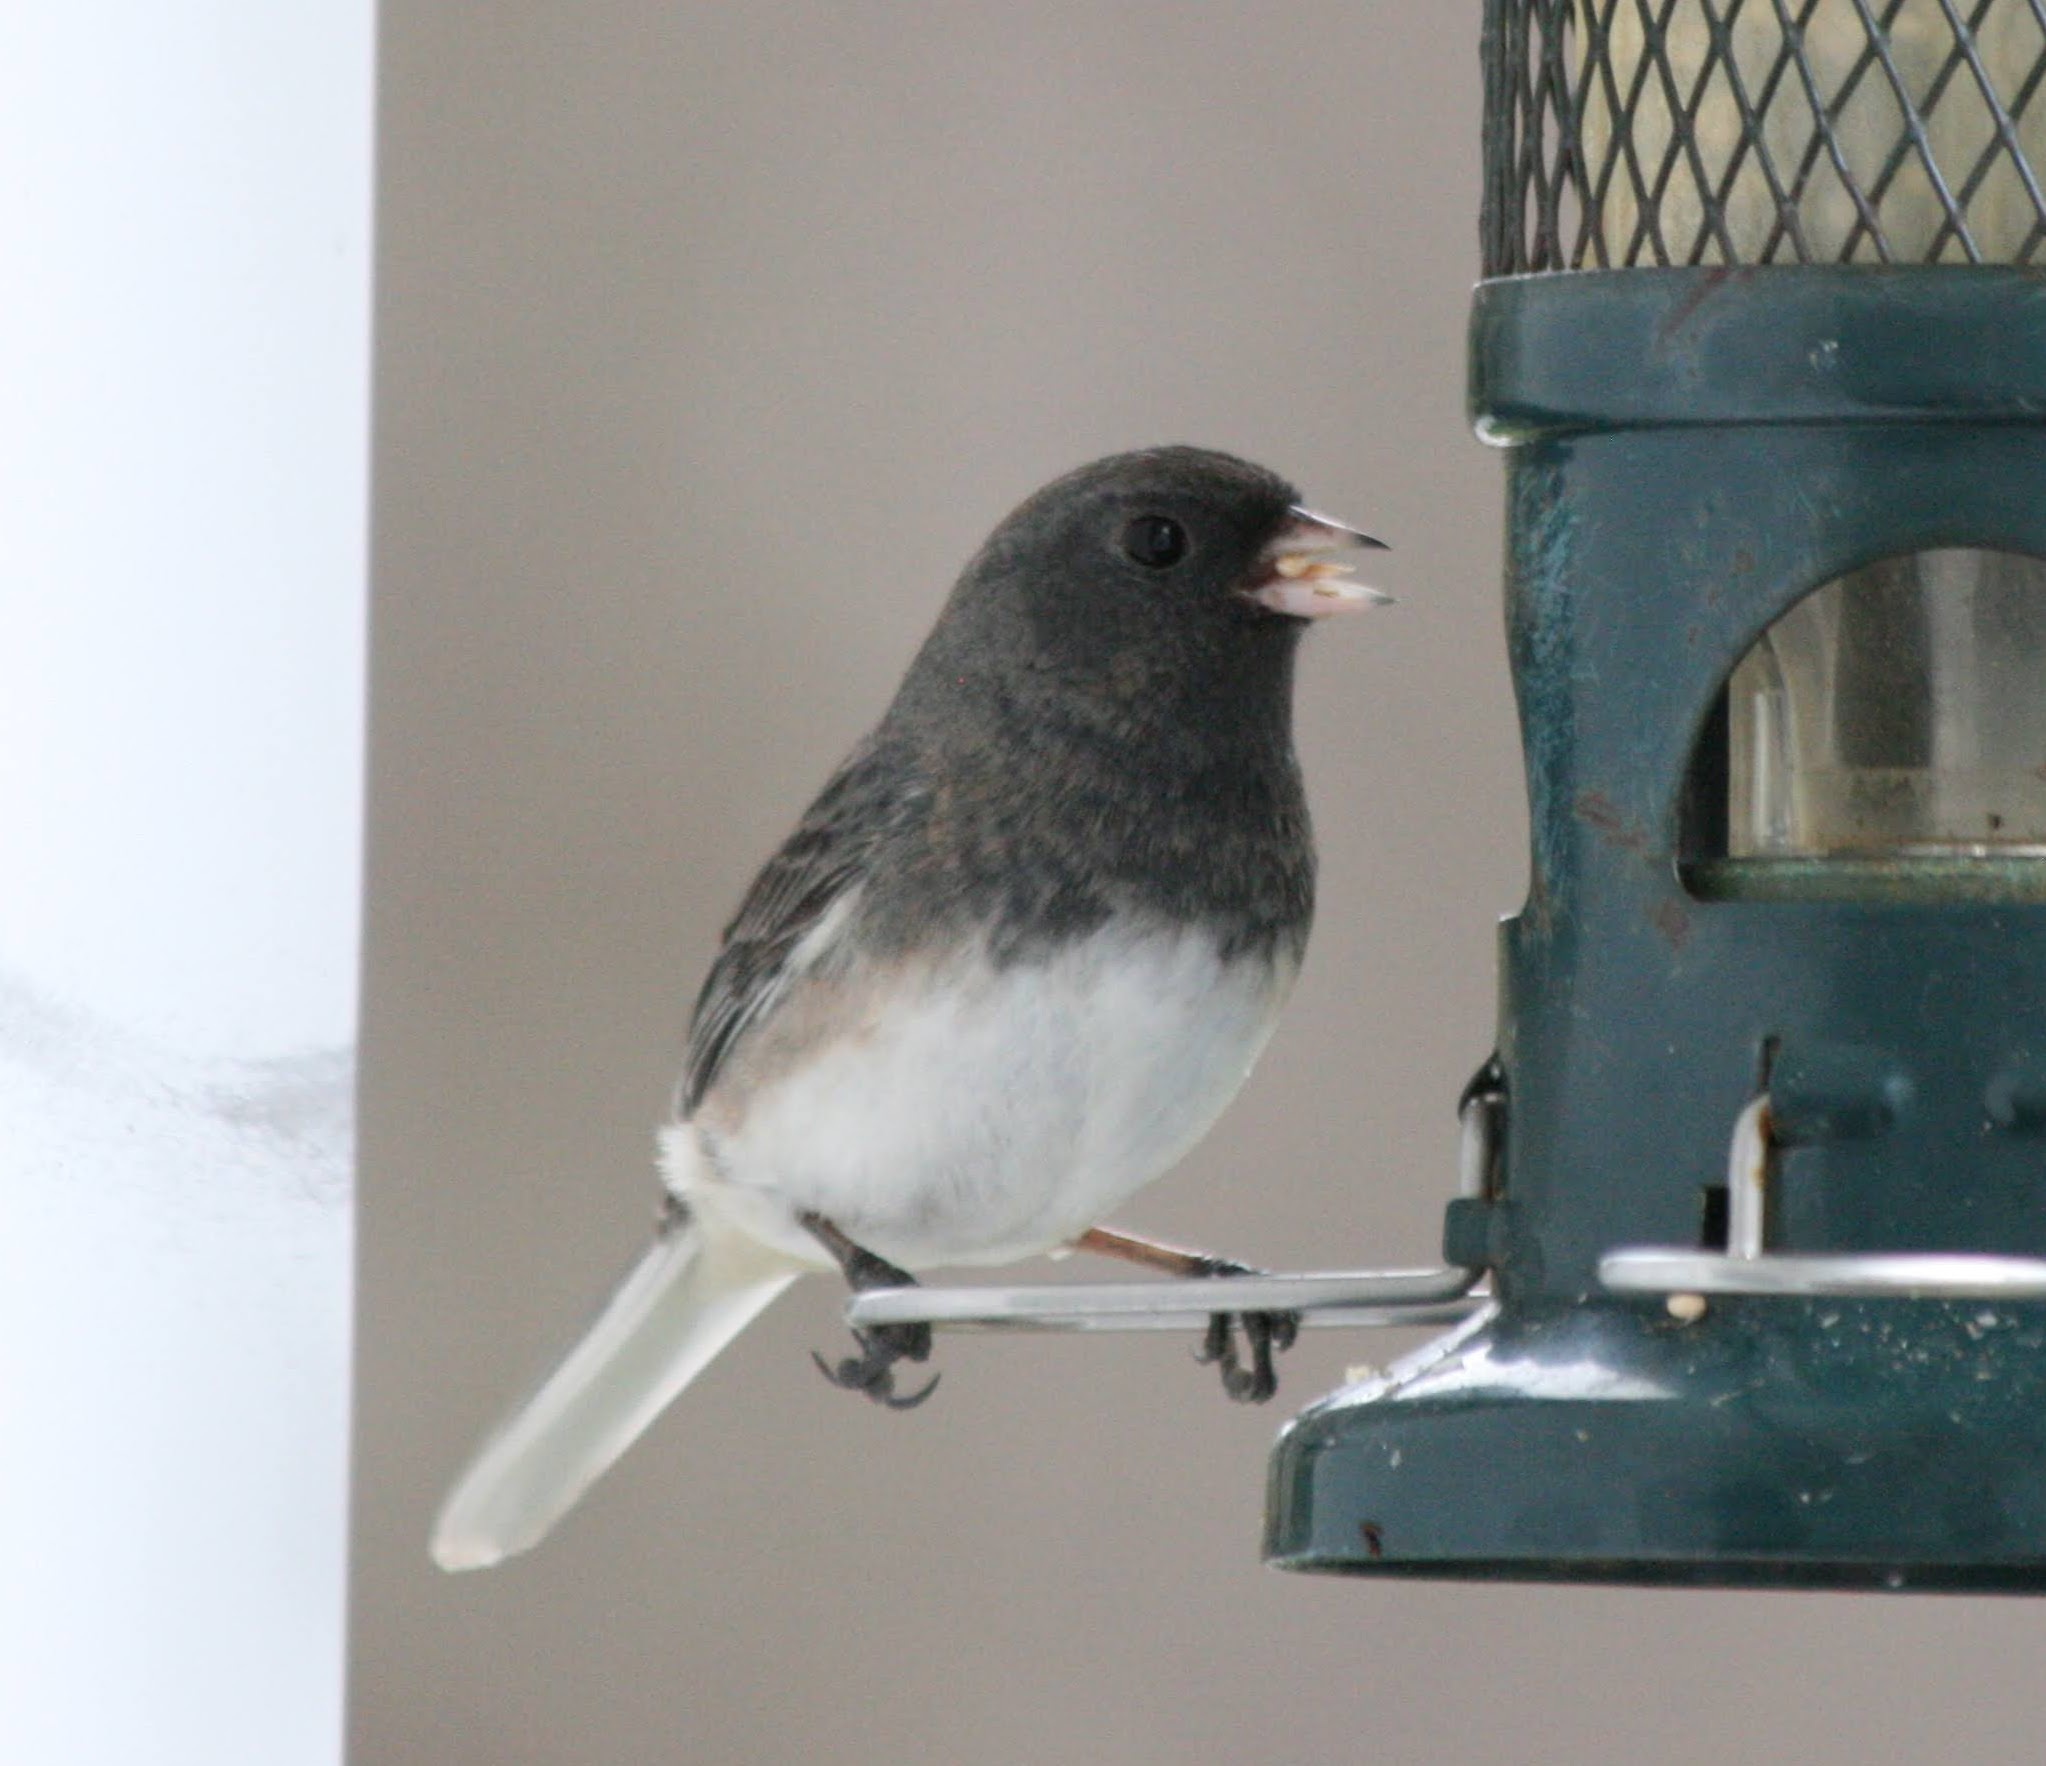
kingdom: Animalia
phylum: Chordata
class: Aves
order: Passeriformes
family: Passerellidae
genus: Junco
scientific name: Junco hyemalis
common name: Dark-eyed junco
